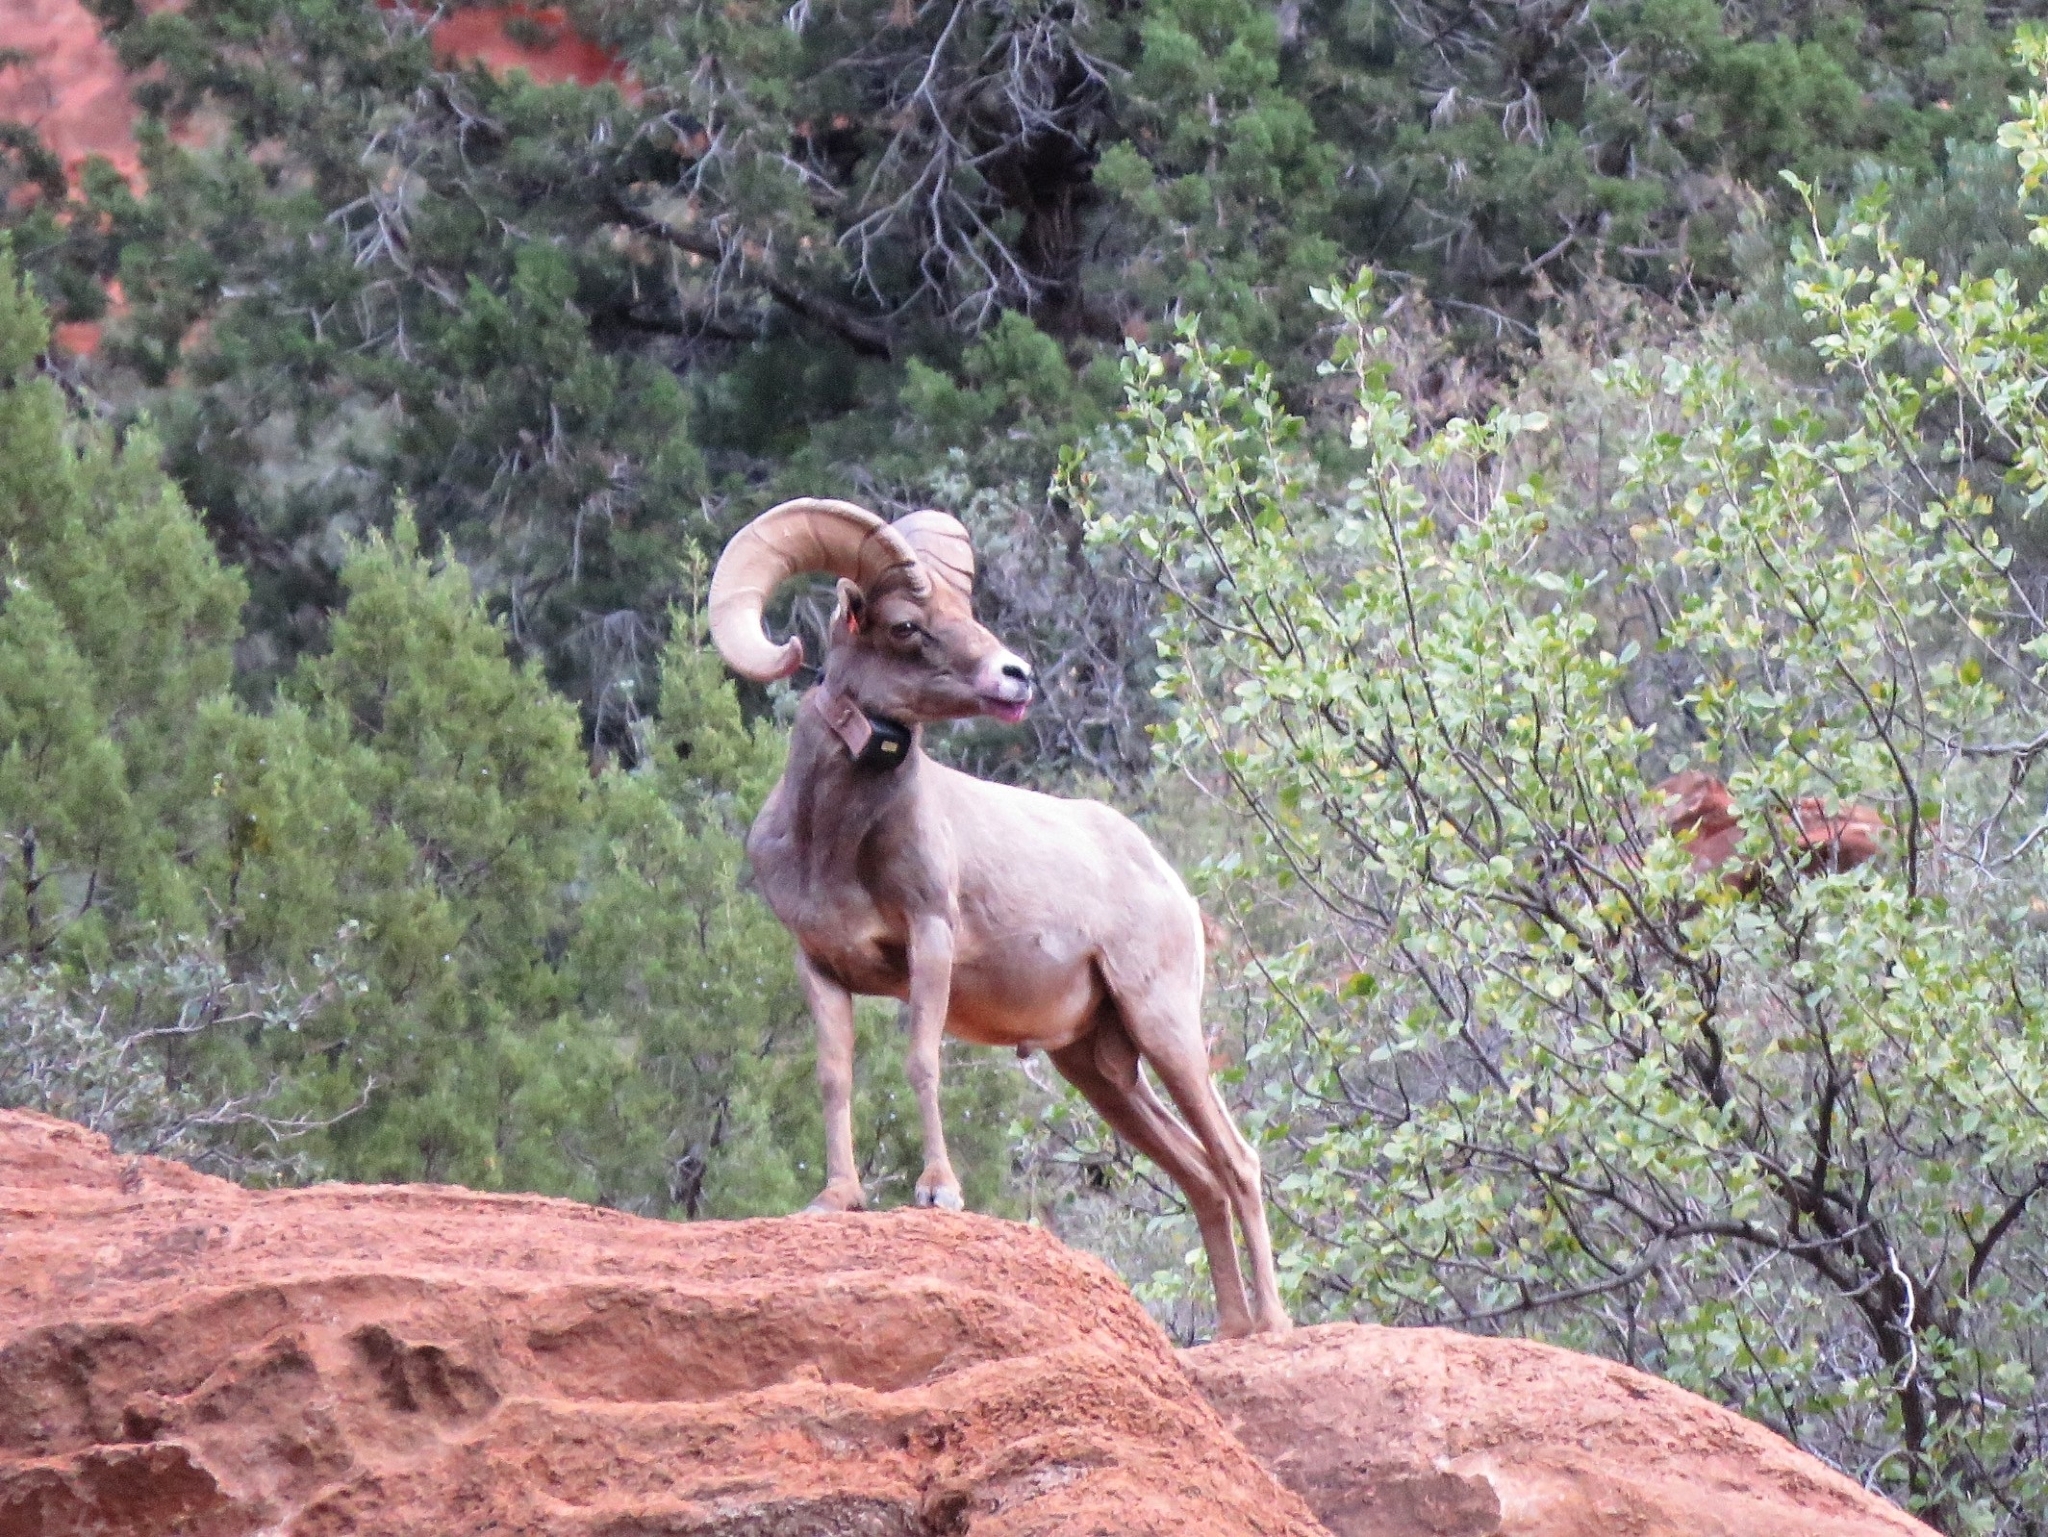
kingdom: Animalia
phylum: Chordata
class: Mammalia
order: Artiodactyla
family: Bovidae
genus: Ovis
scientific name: Ovis canadensis
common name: Bighorn sheep
